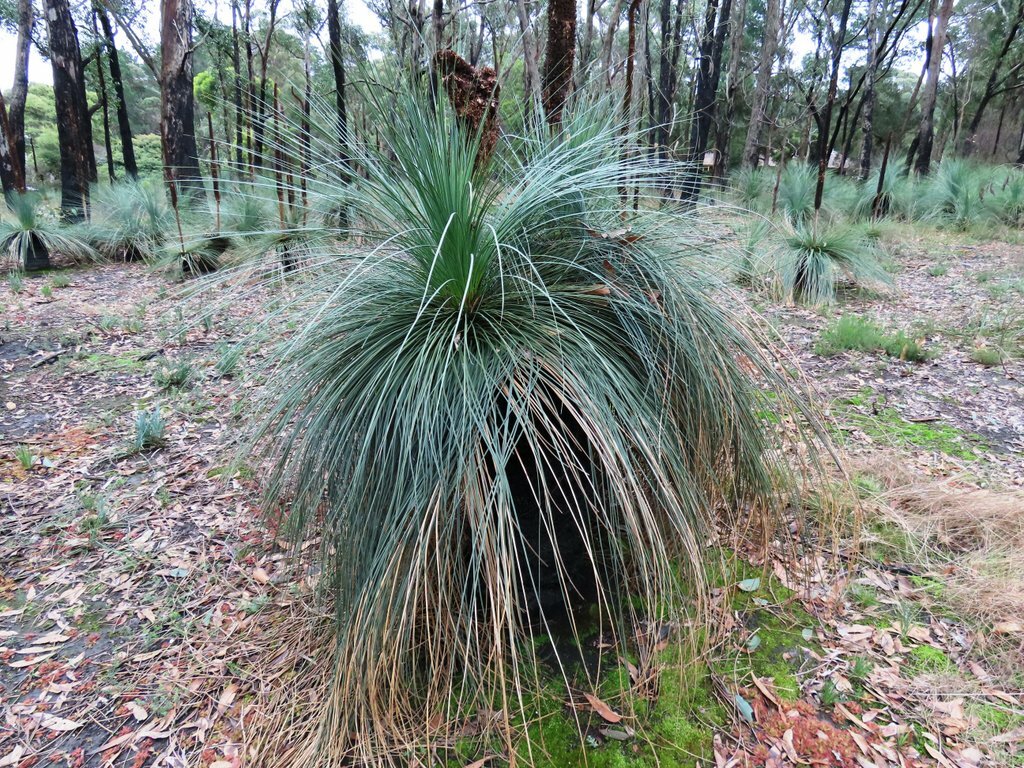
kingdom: Plantae
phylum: Tracheophyta
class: Liliopsida
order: Asparagales
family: Asphodelaceae
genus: Xanthorrhoea
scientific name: Xanthorrhoea australis
